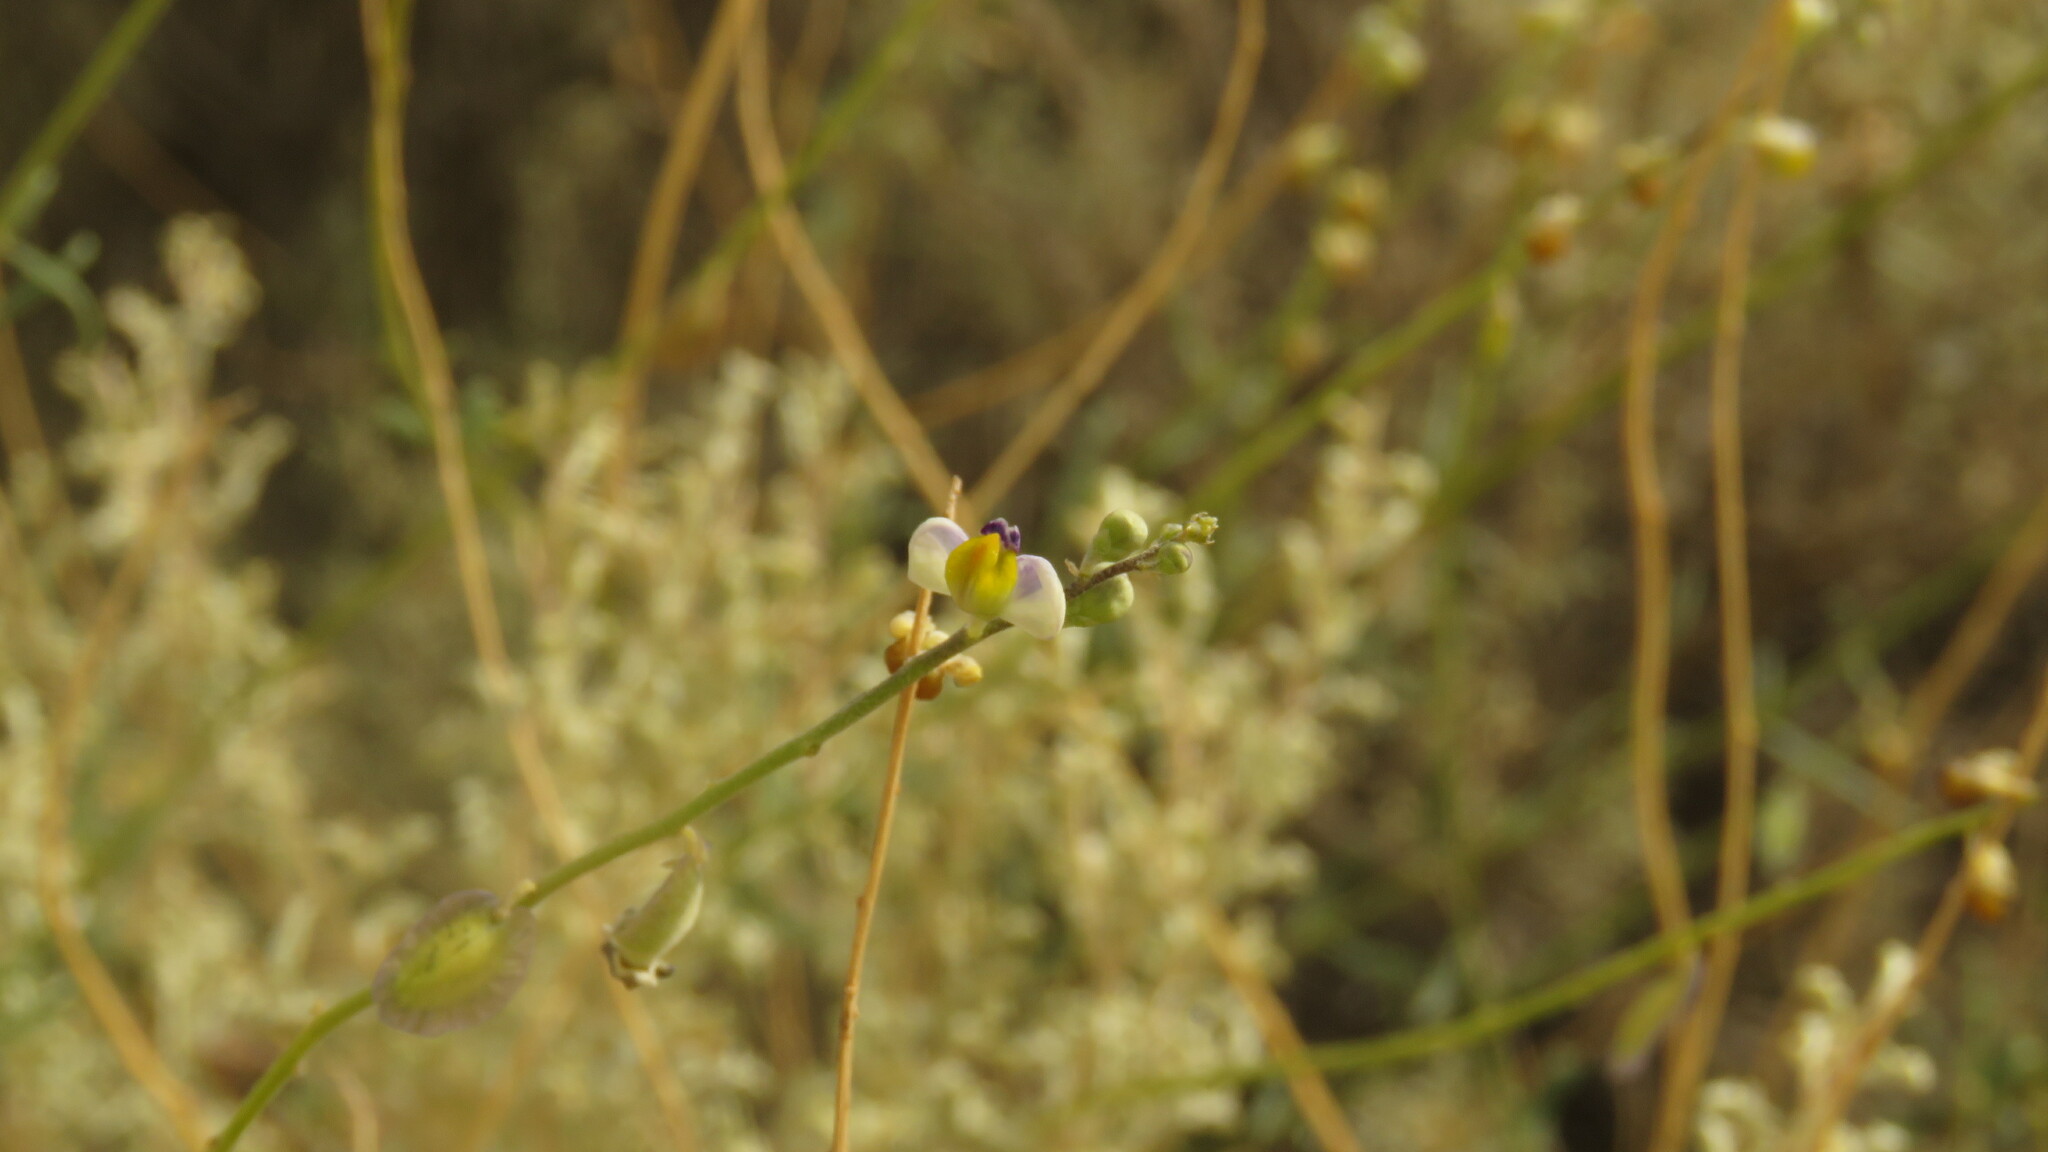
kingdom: Plantae
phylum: Tracheophyta
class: Magnoliopsida
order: Fabales
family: Polygalaceae
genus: Monnina
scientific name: Monnina dictyocarpa
